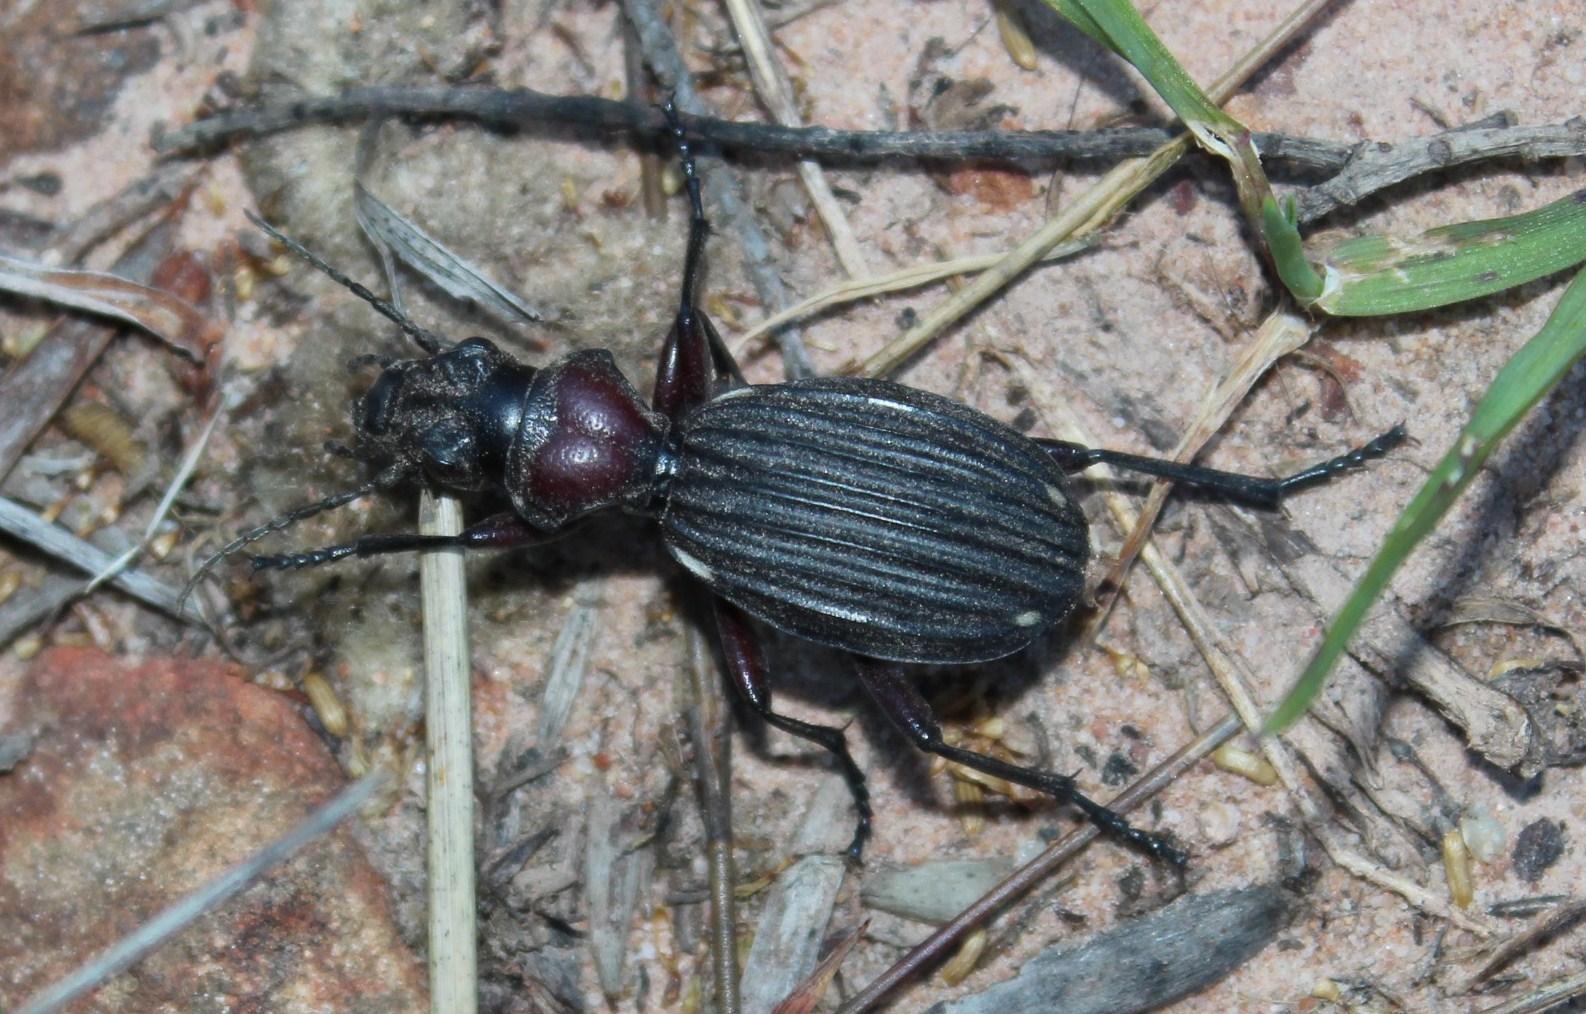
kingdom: Animalia
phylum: Arthropoda
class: Insecta
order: Coleoptera
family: Carabidae
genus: Anthia
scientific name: Anthia decemguttata
